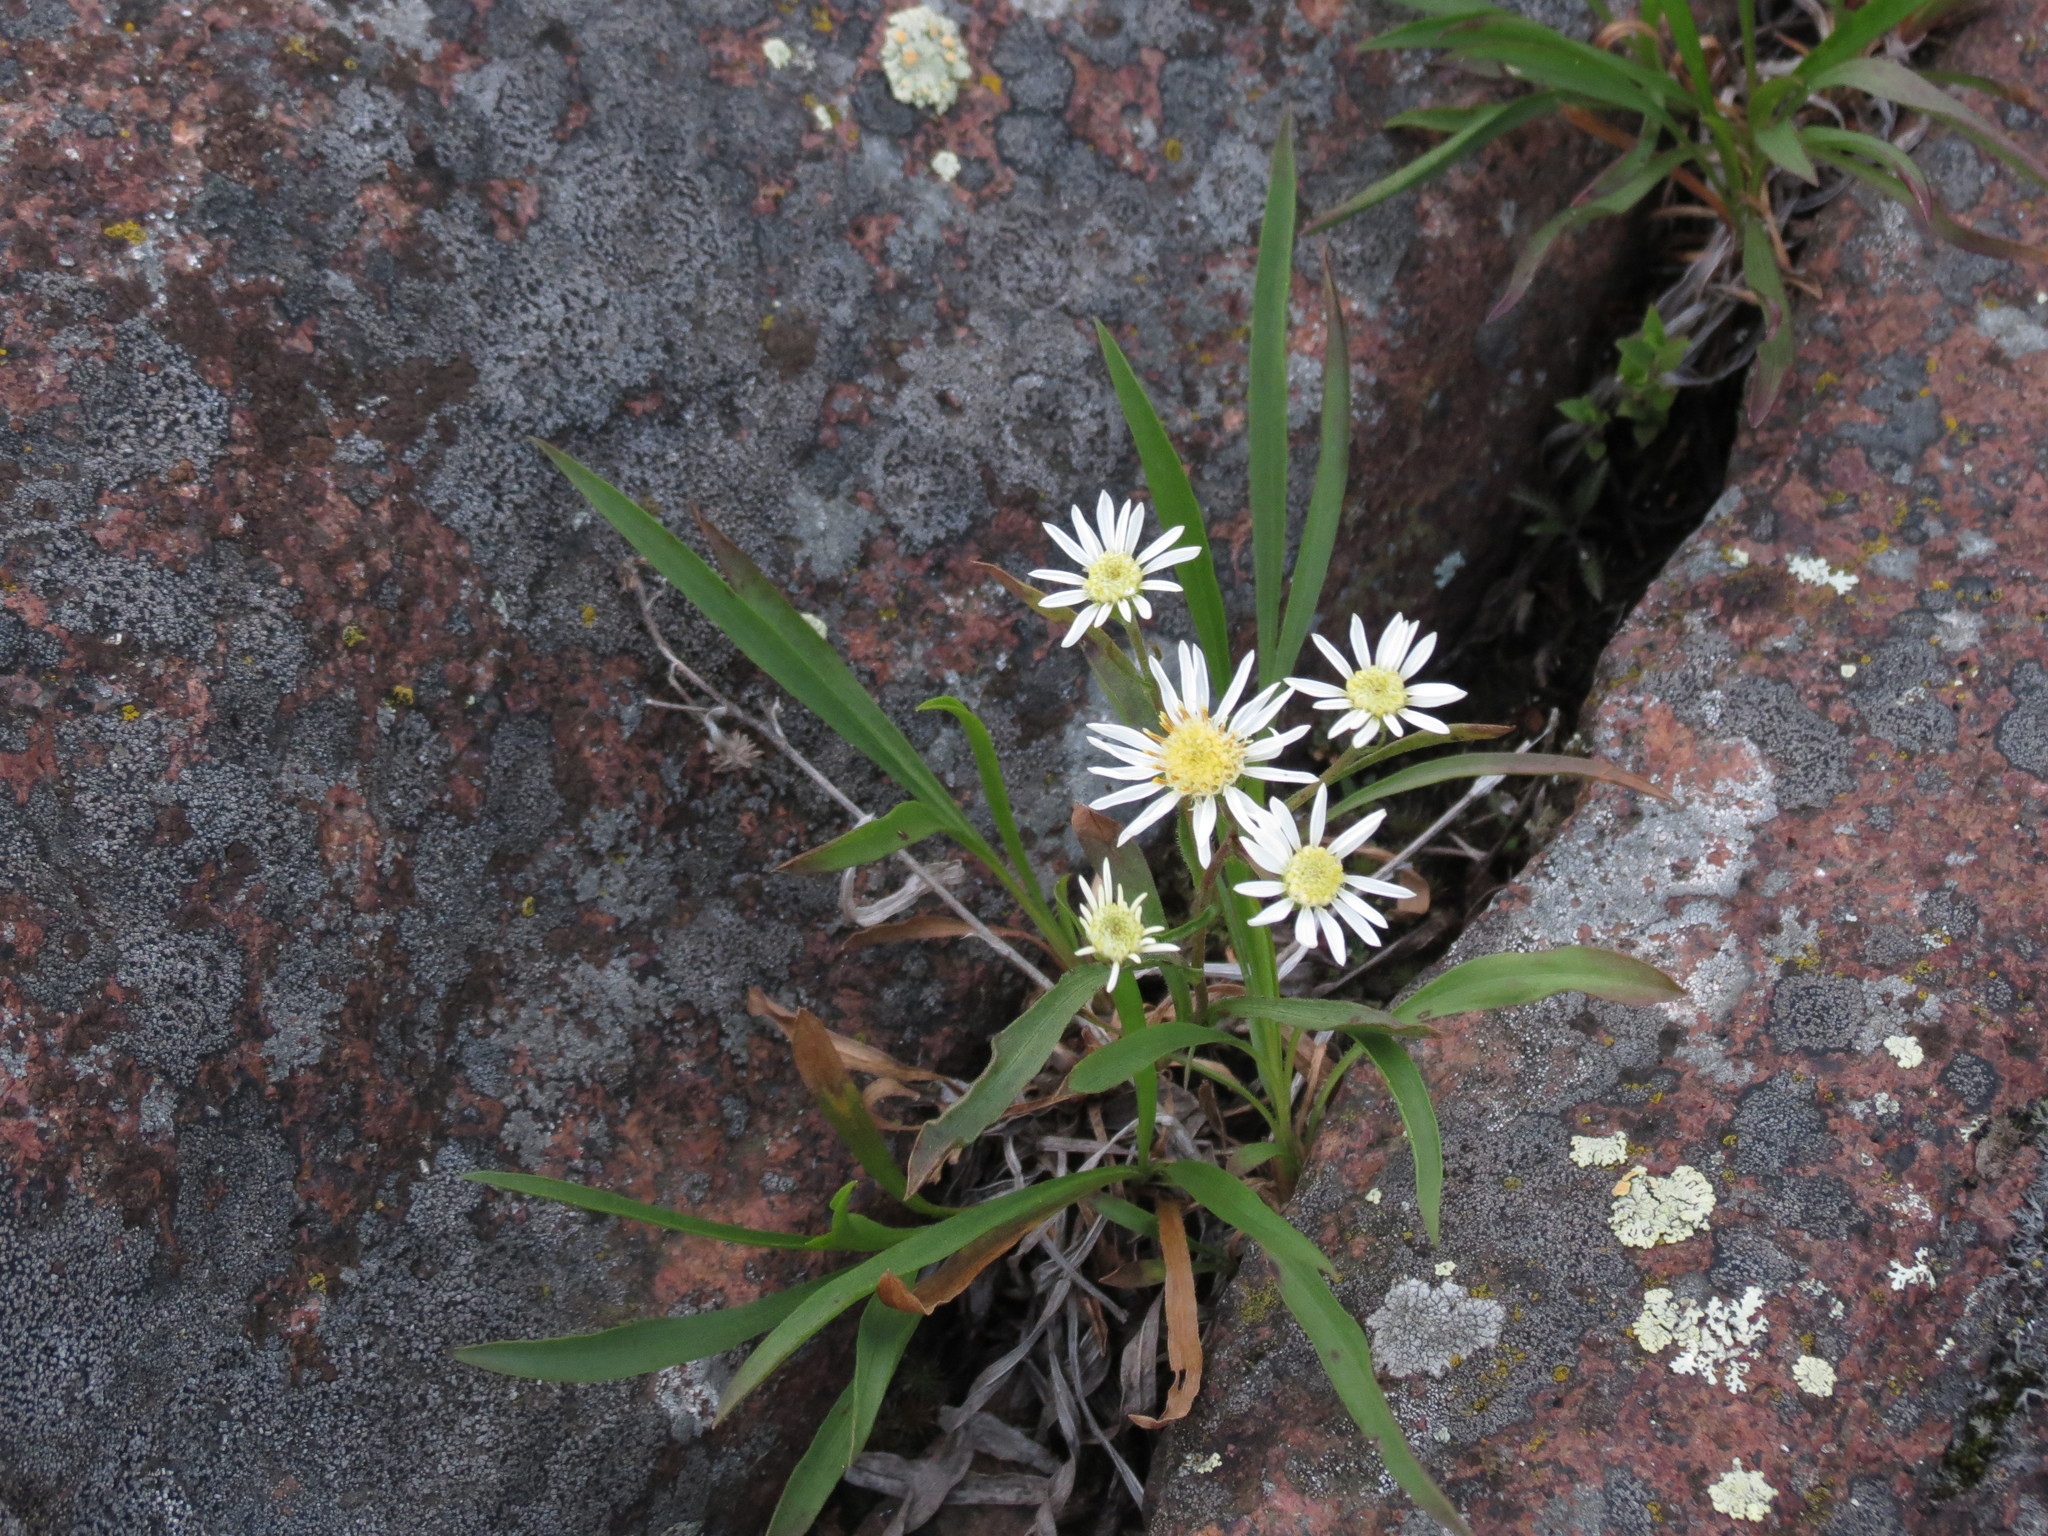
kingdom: Plantae
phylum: Tracheophyta
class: Magnoliopsida
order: Asterales
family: Asteraceae
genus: Solidago
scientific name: Solidago ptarmicoides
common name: White flat-top goldenrod
